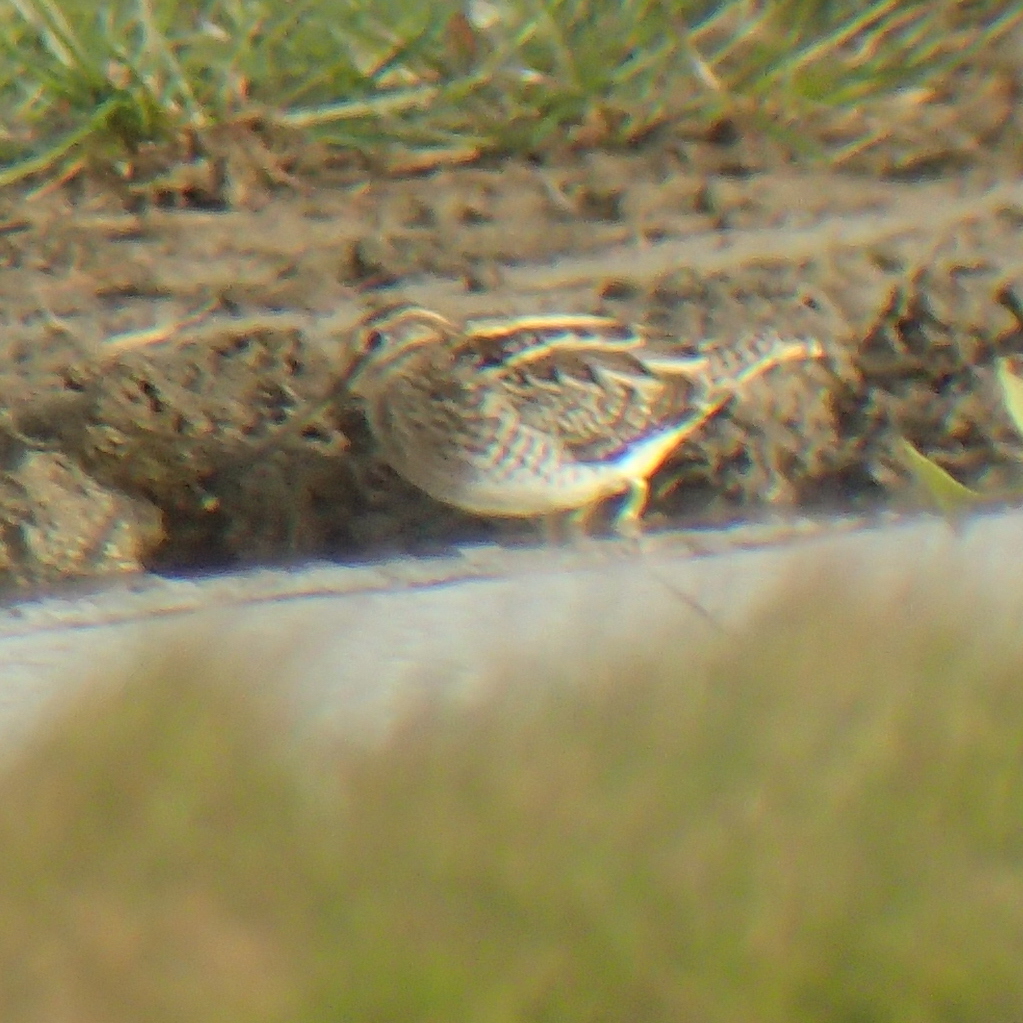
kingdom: Animalia
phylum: Chordata
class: Aves
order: Charadriiformes
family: Scolopacidae
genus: Gallinago
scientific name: Gallinago gallinago
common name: Common snipe
